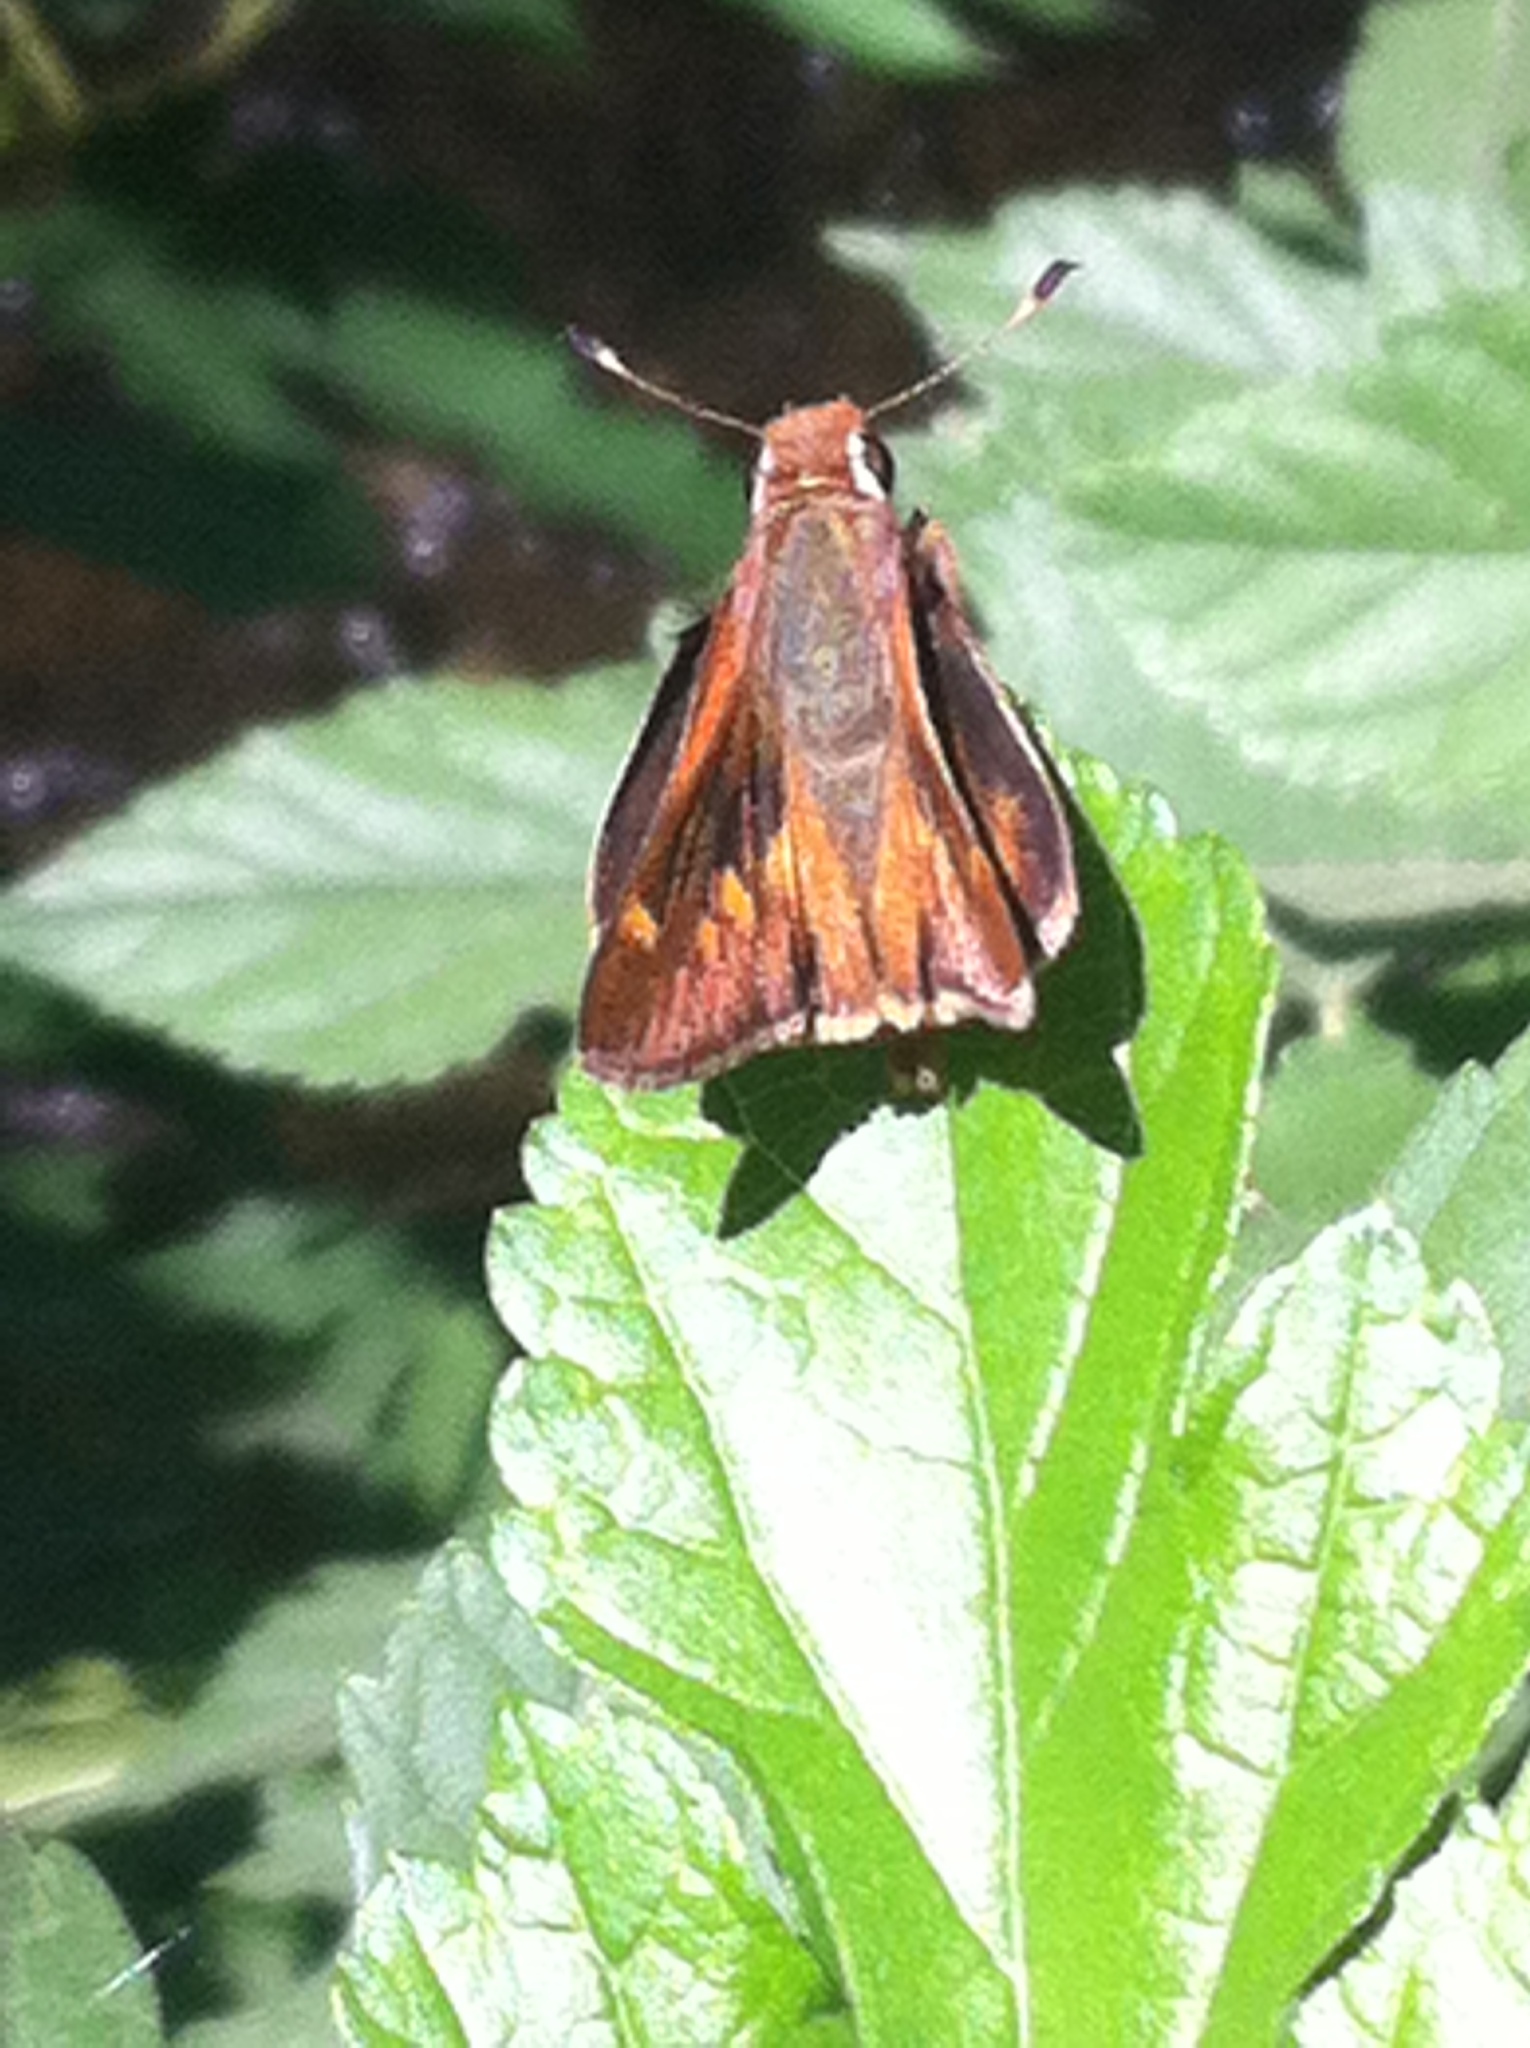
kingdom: Animalia
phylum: Arthropoda
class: Insecta
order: Lepidoptera
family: Hesperiidae
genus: Lon
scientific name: Lon melane
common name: Umber skipper
